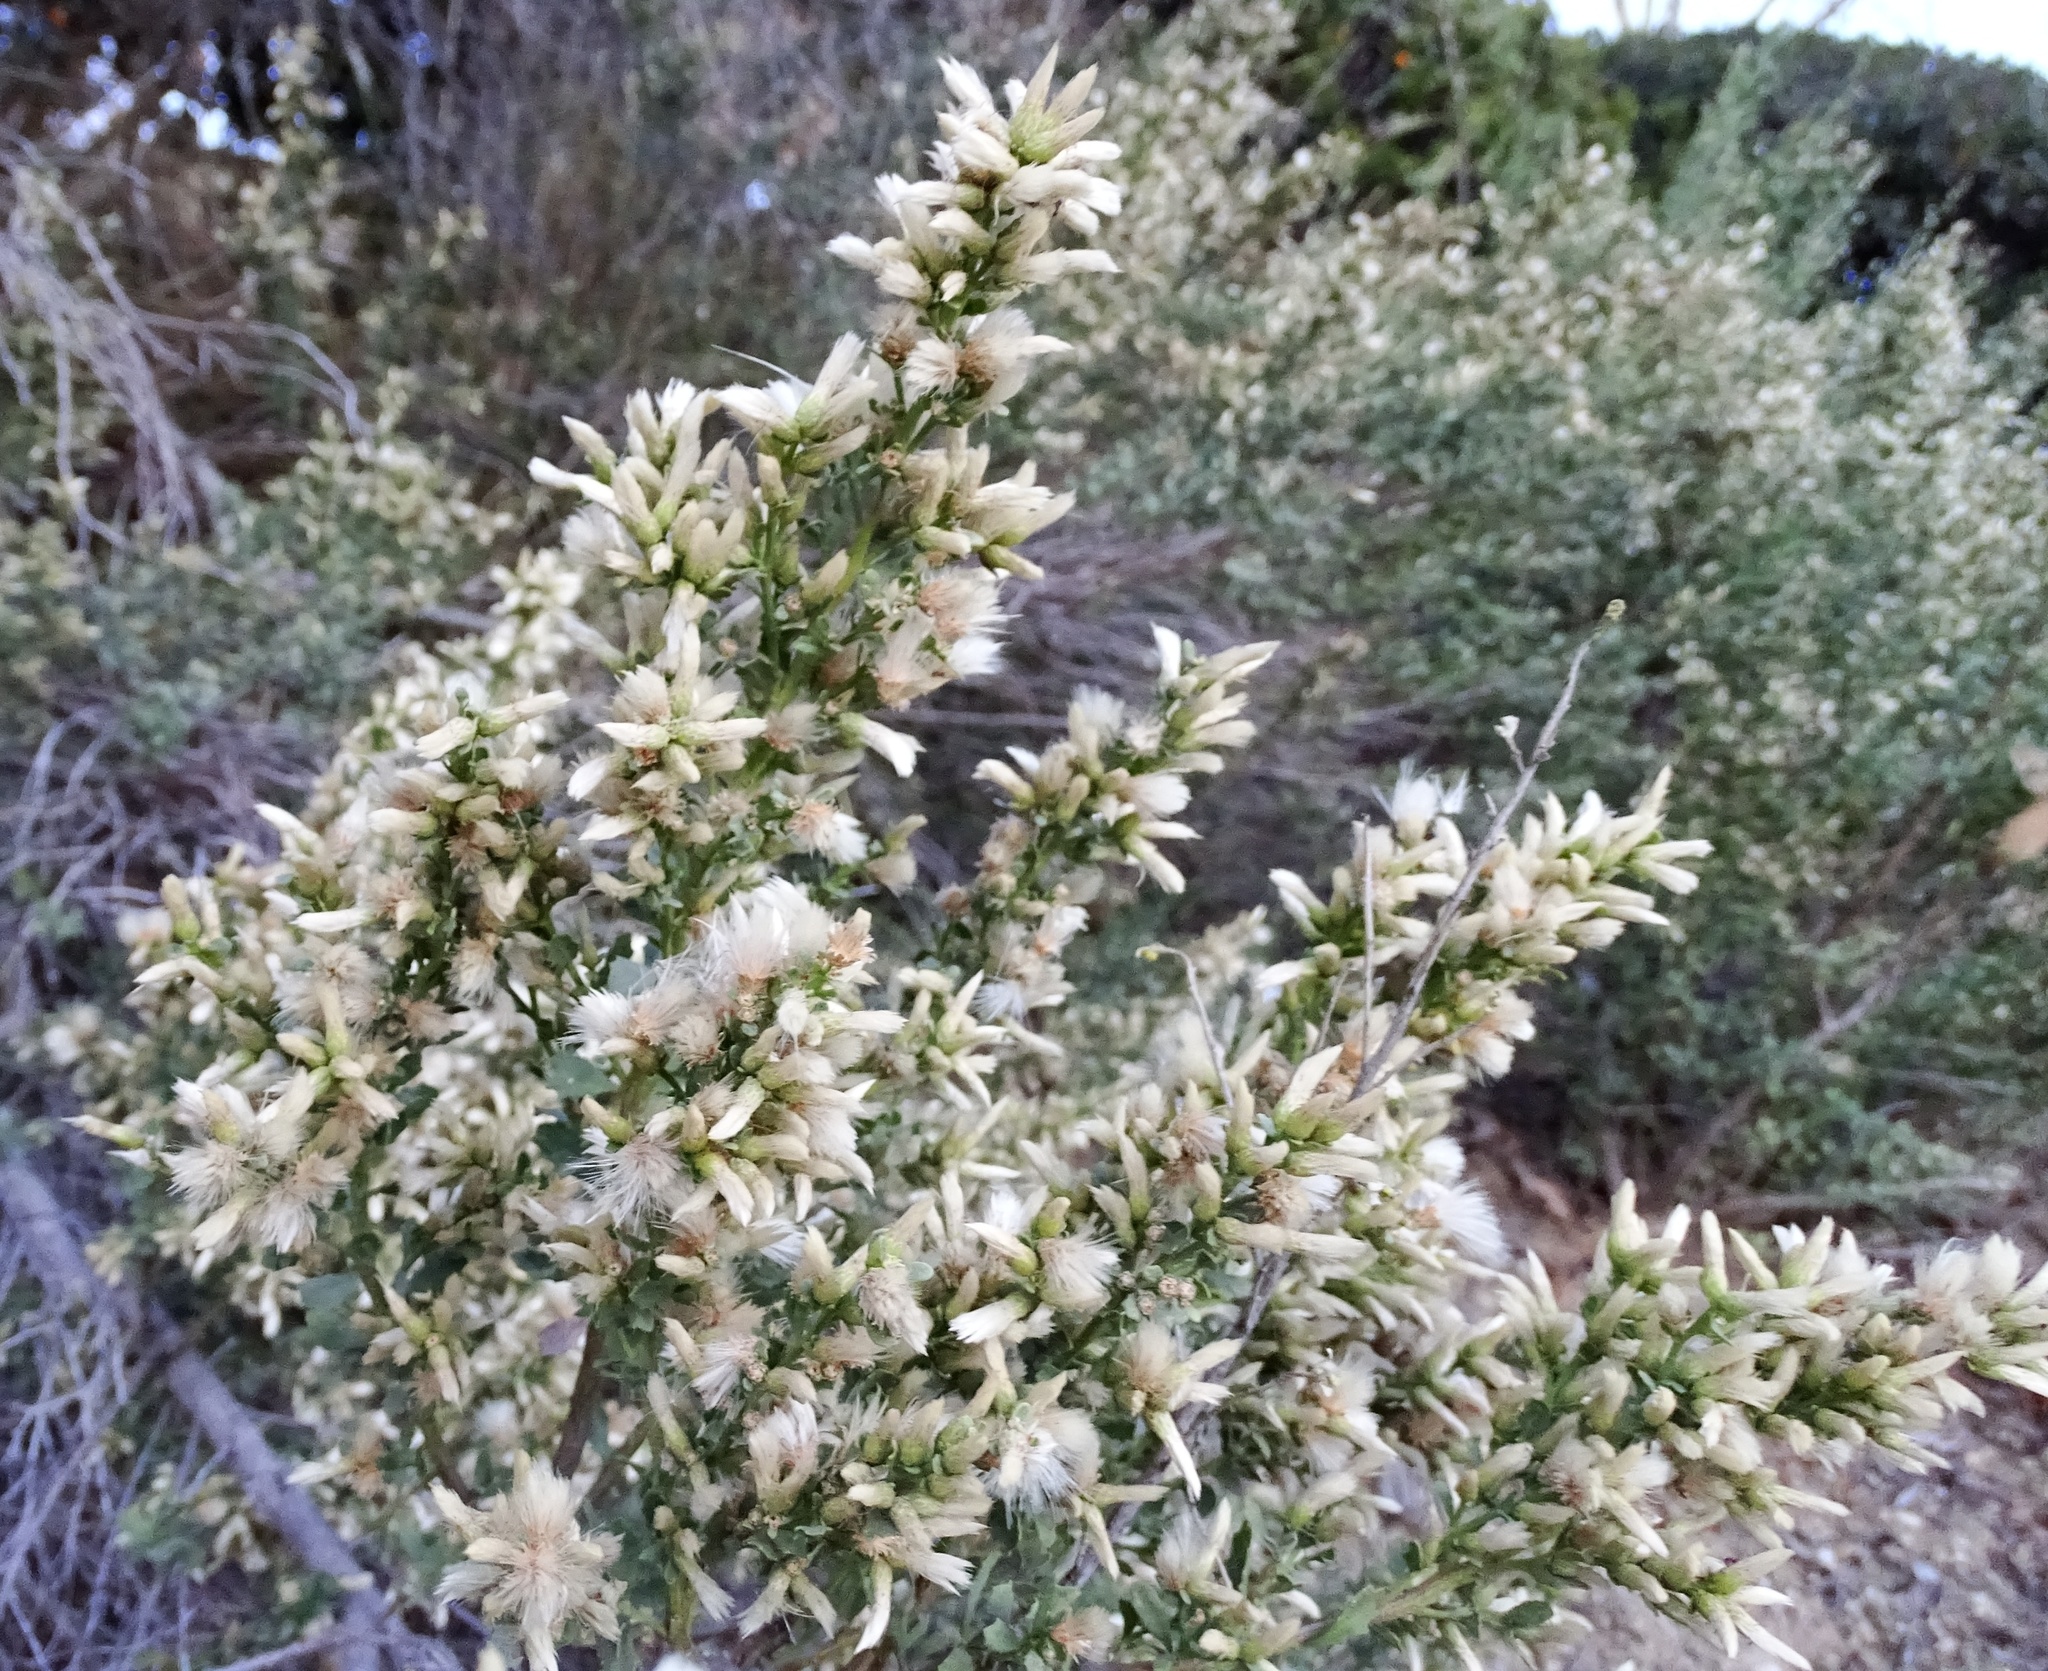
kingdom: Plantae
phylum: Tracheophyta
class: Magnoliopsida
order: Asterales
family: Asteraceae
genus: Baccharis
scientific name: Baccharis pilularis
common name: Coyotebrush
